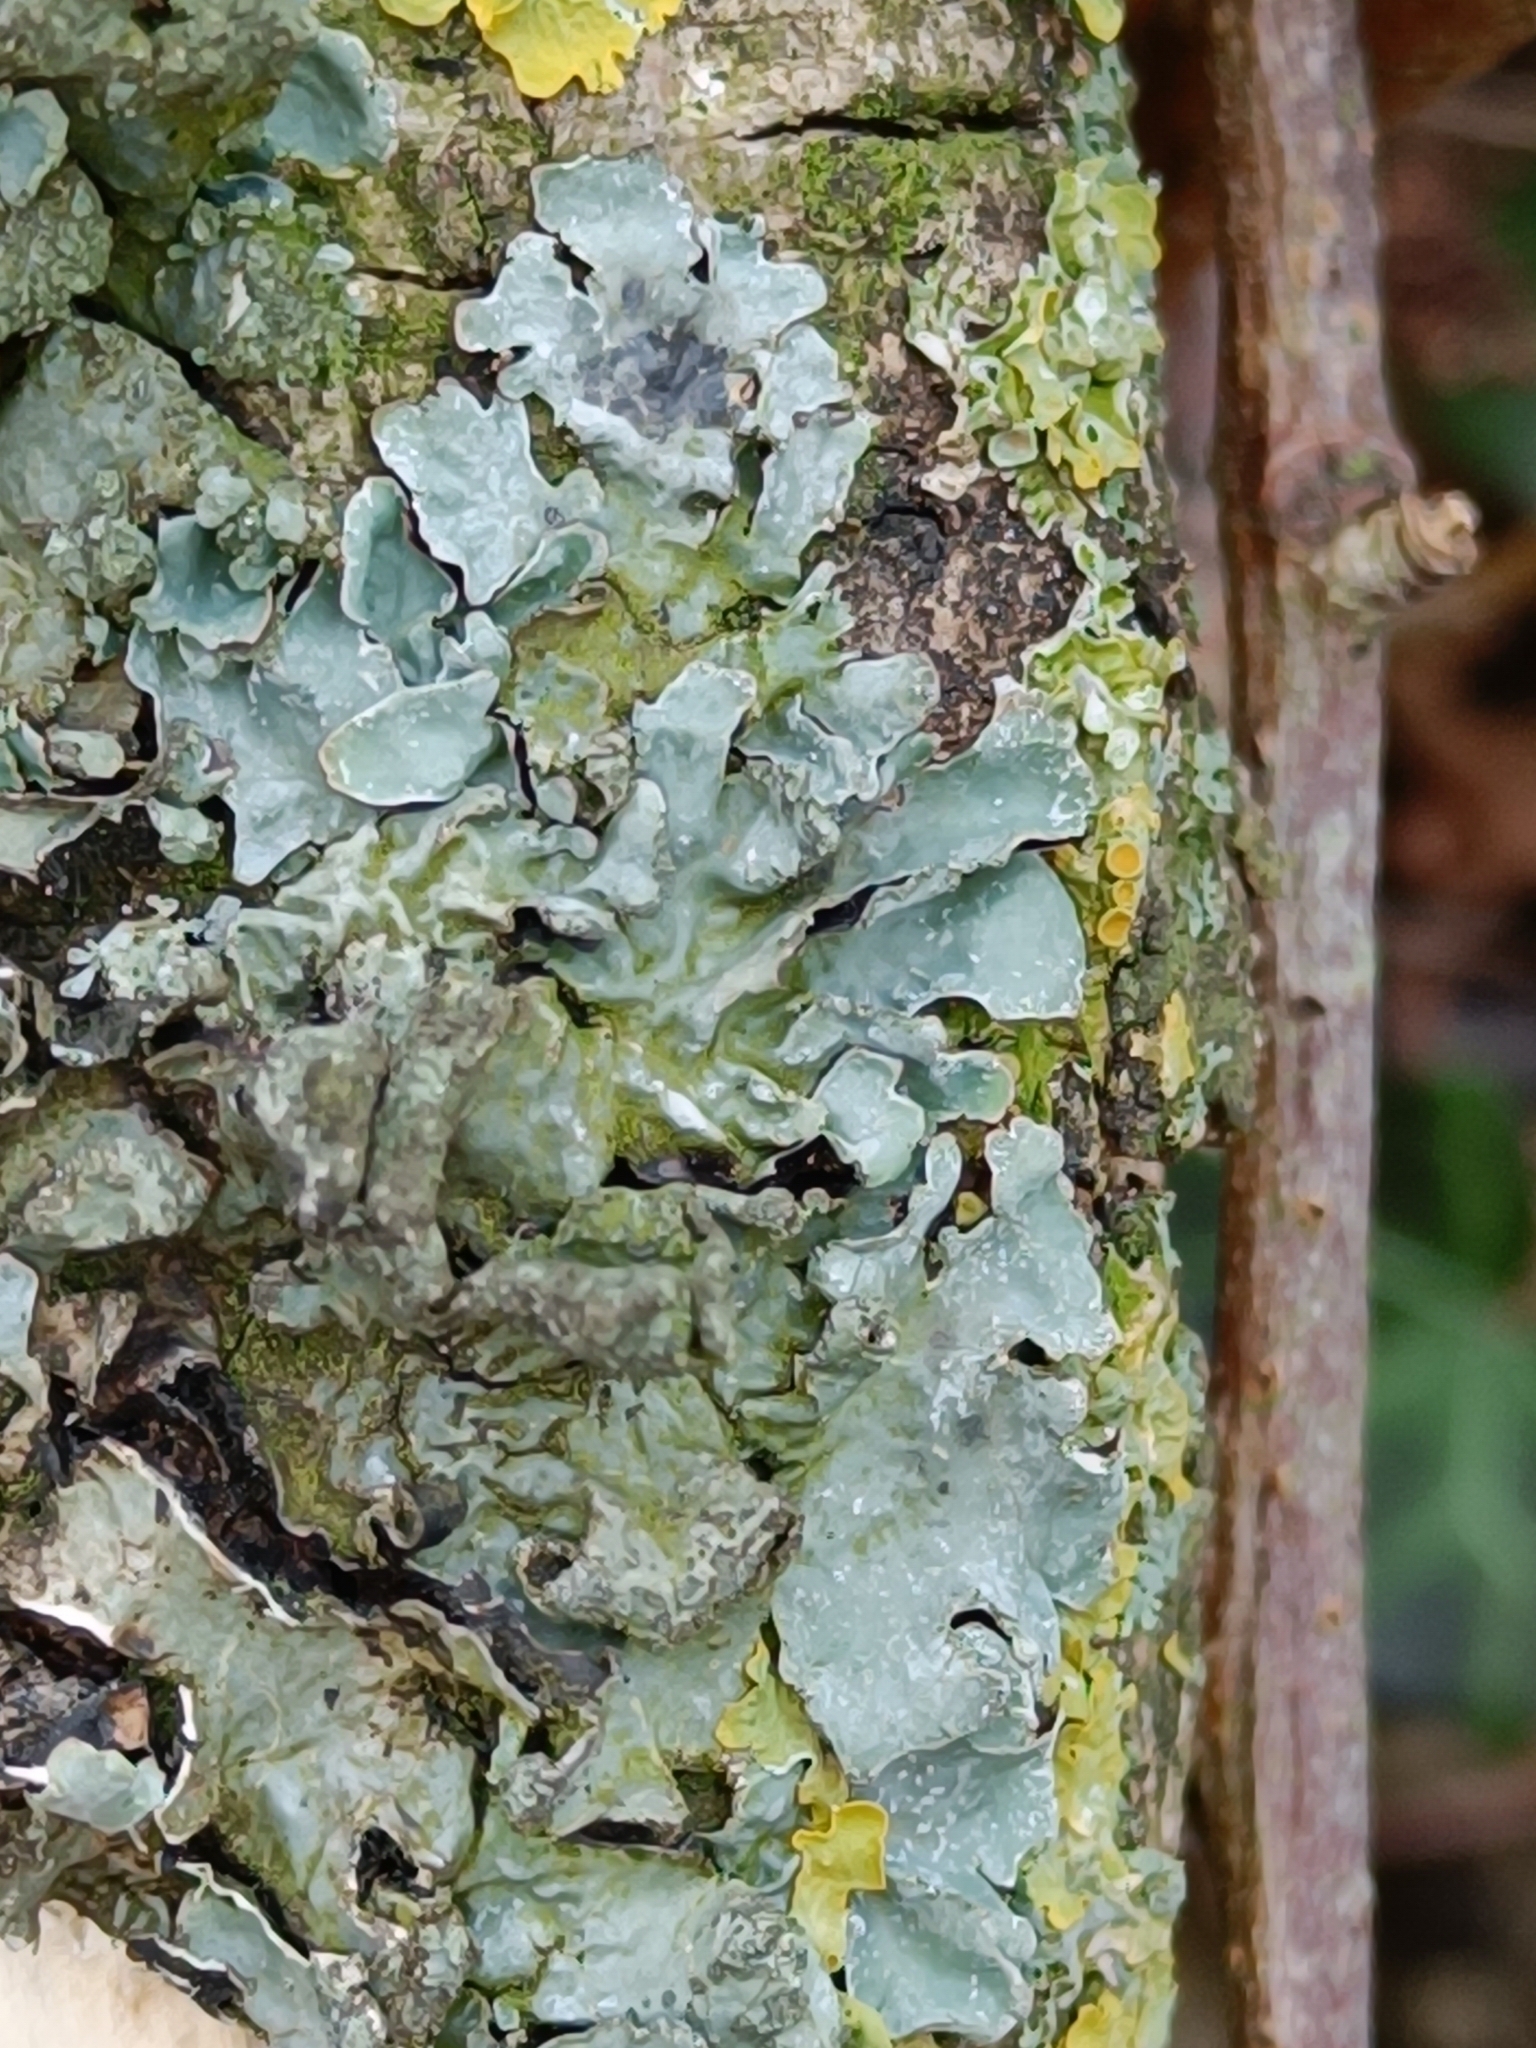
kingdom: Fungi
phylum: Ascomycota
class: Lecanoromycetes
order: Lecanorales
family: Parmeliaceae
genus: Parmelia
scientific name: Parmelia sulcata
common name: Netted shield lichen
